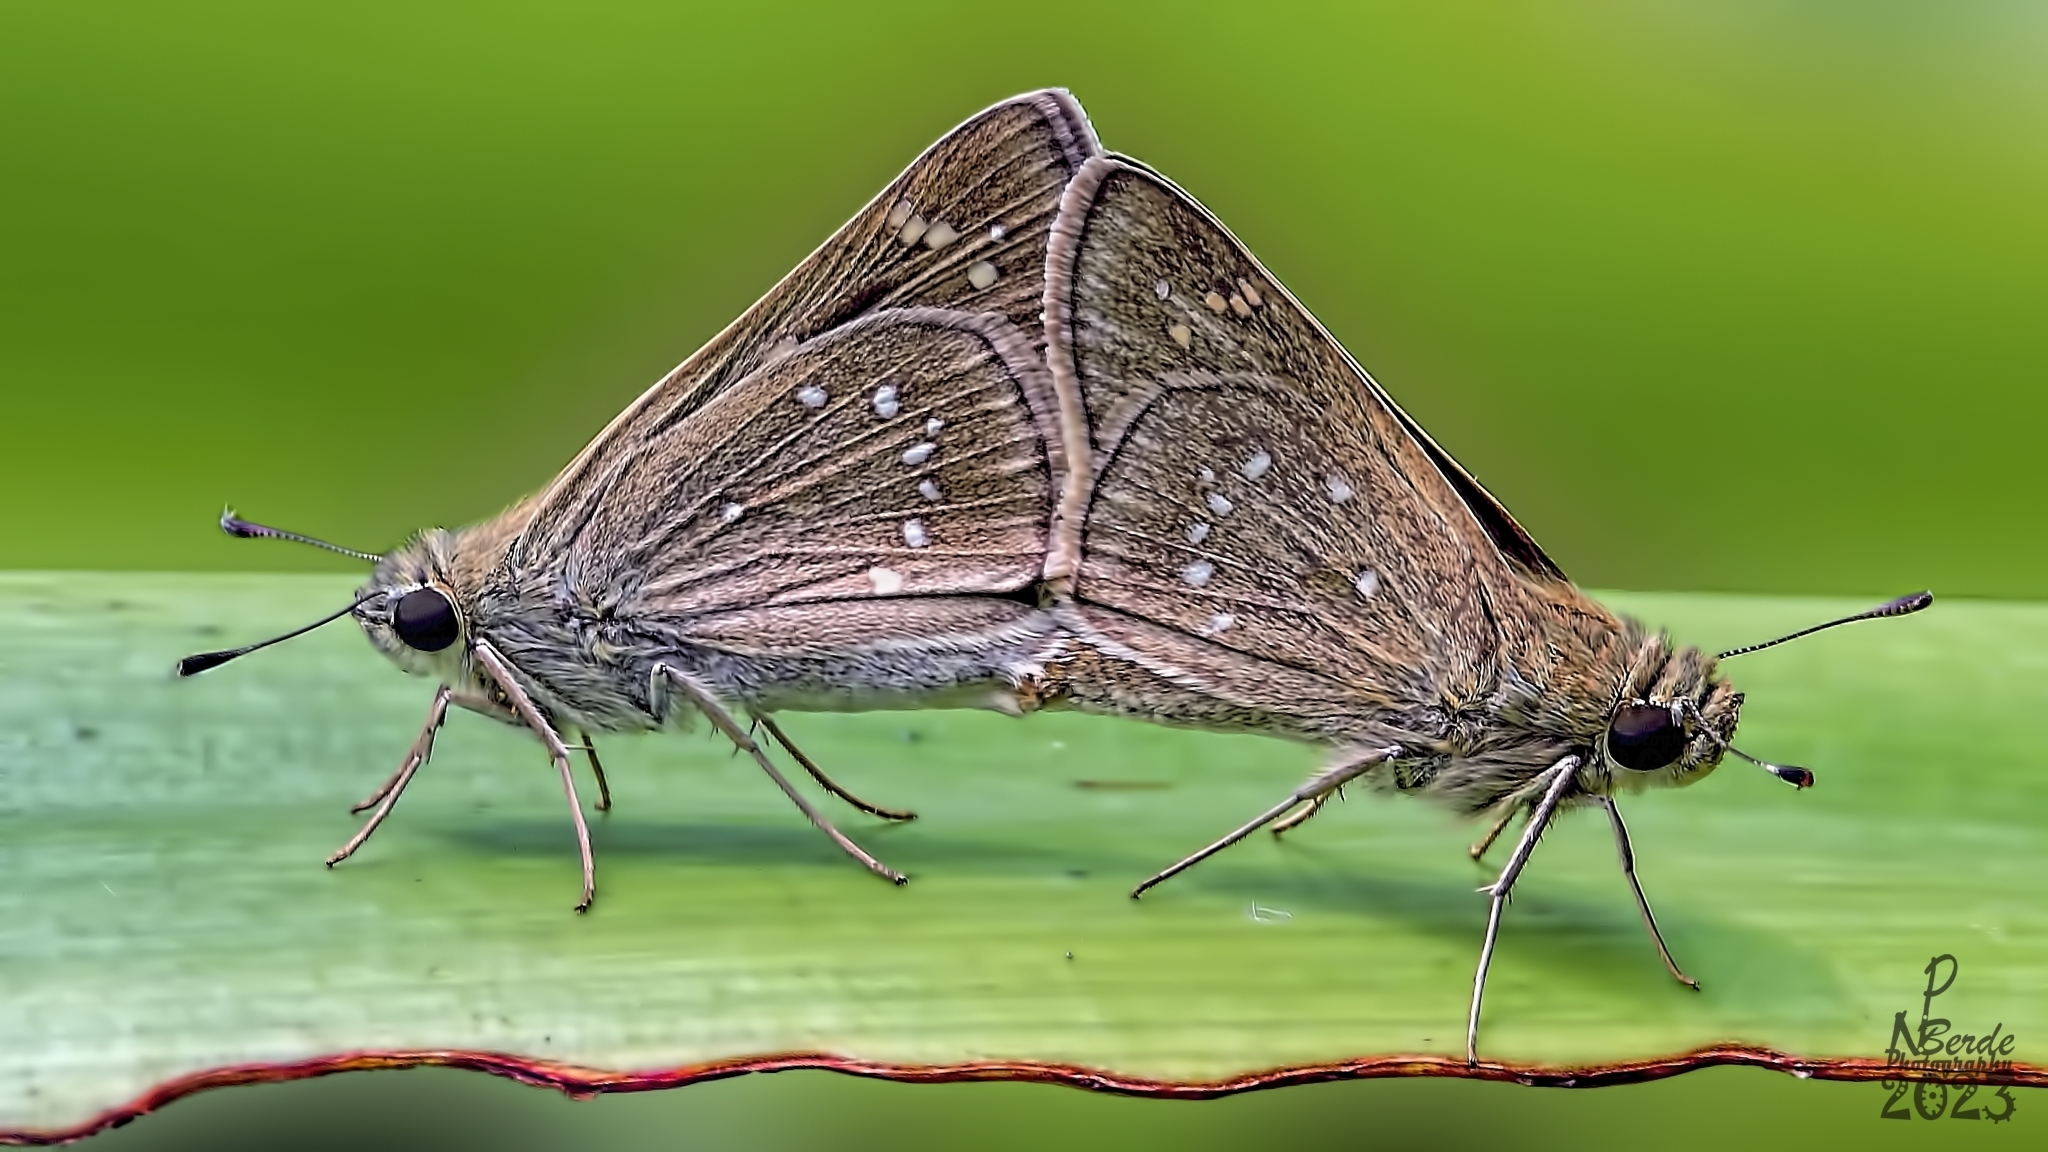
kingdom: Animalia
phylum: Arthropoda
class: Insecta
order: Lepidoptera
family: Hesperiidae
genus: Pelopidas
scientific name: Pelopidas mathias
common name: Black-branded swift
